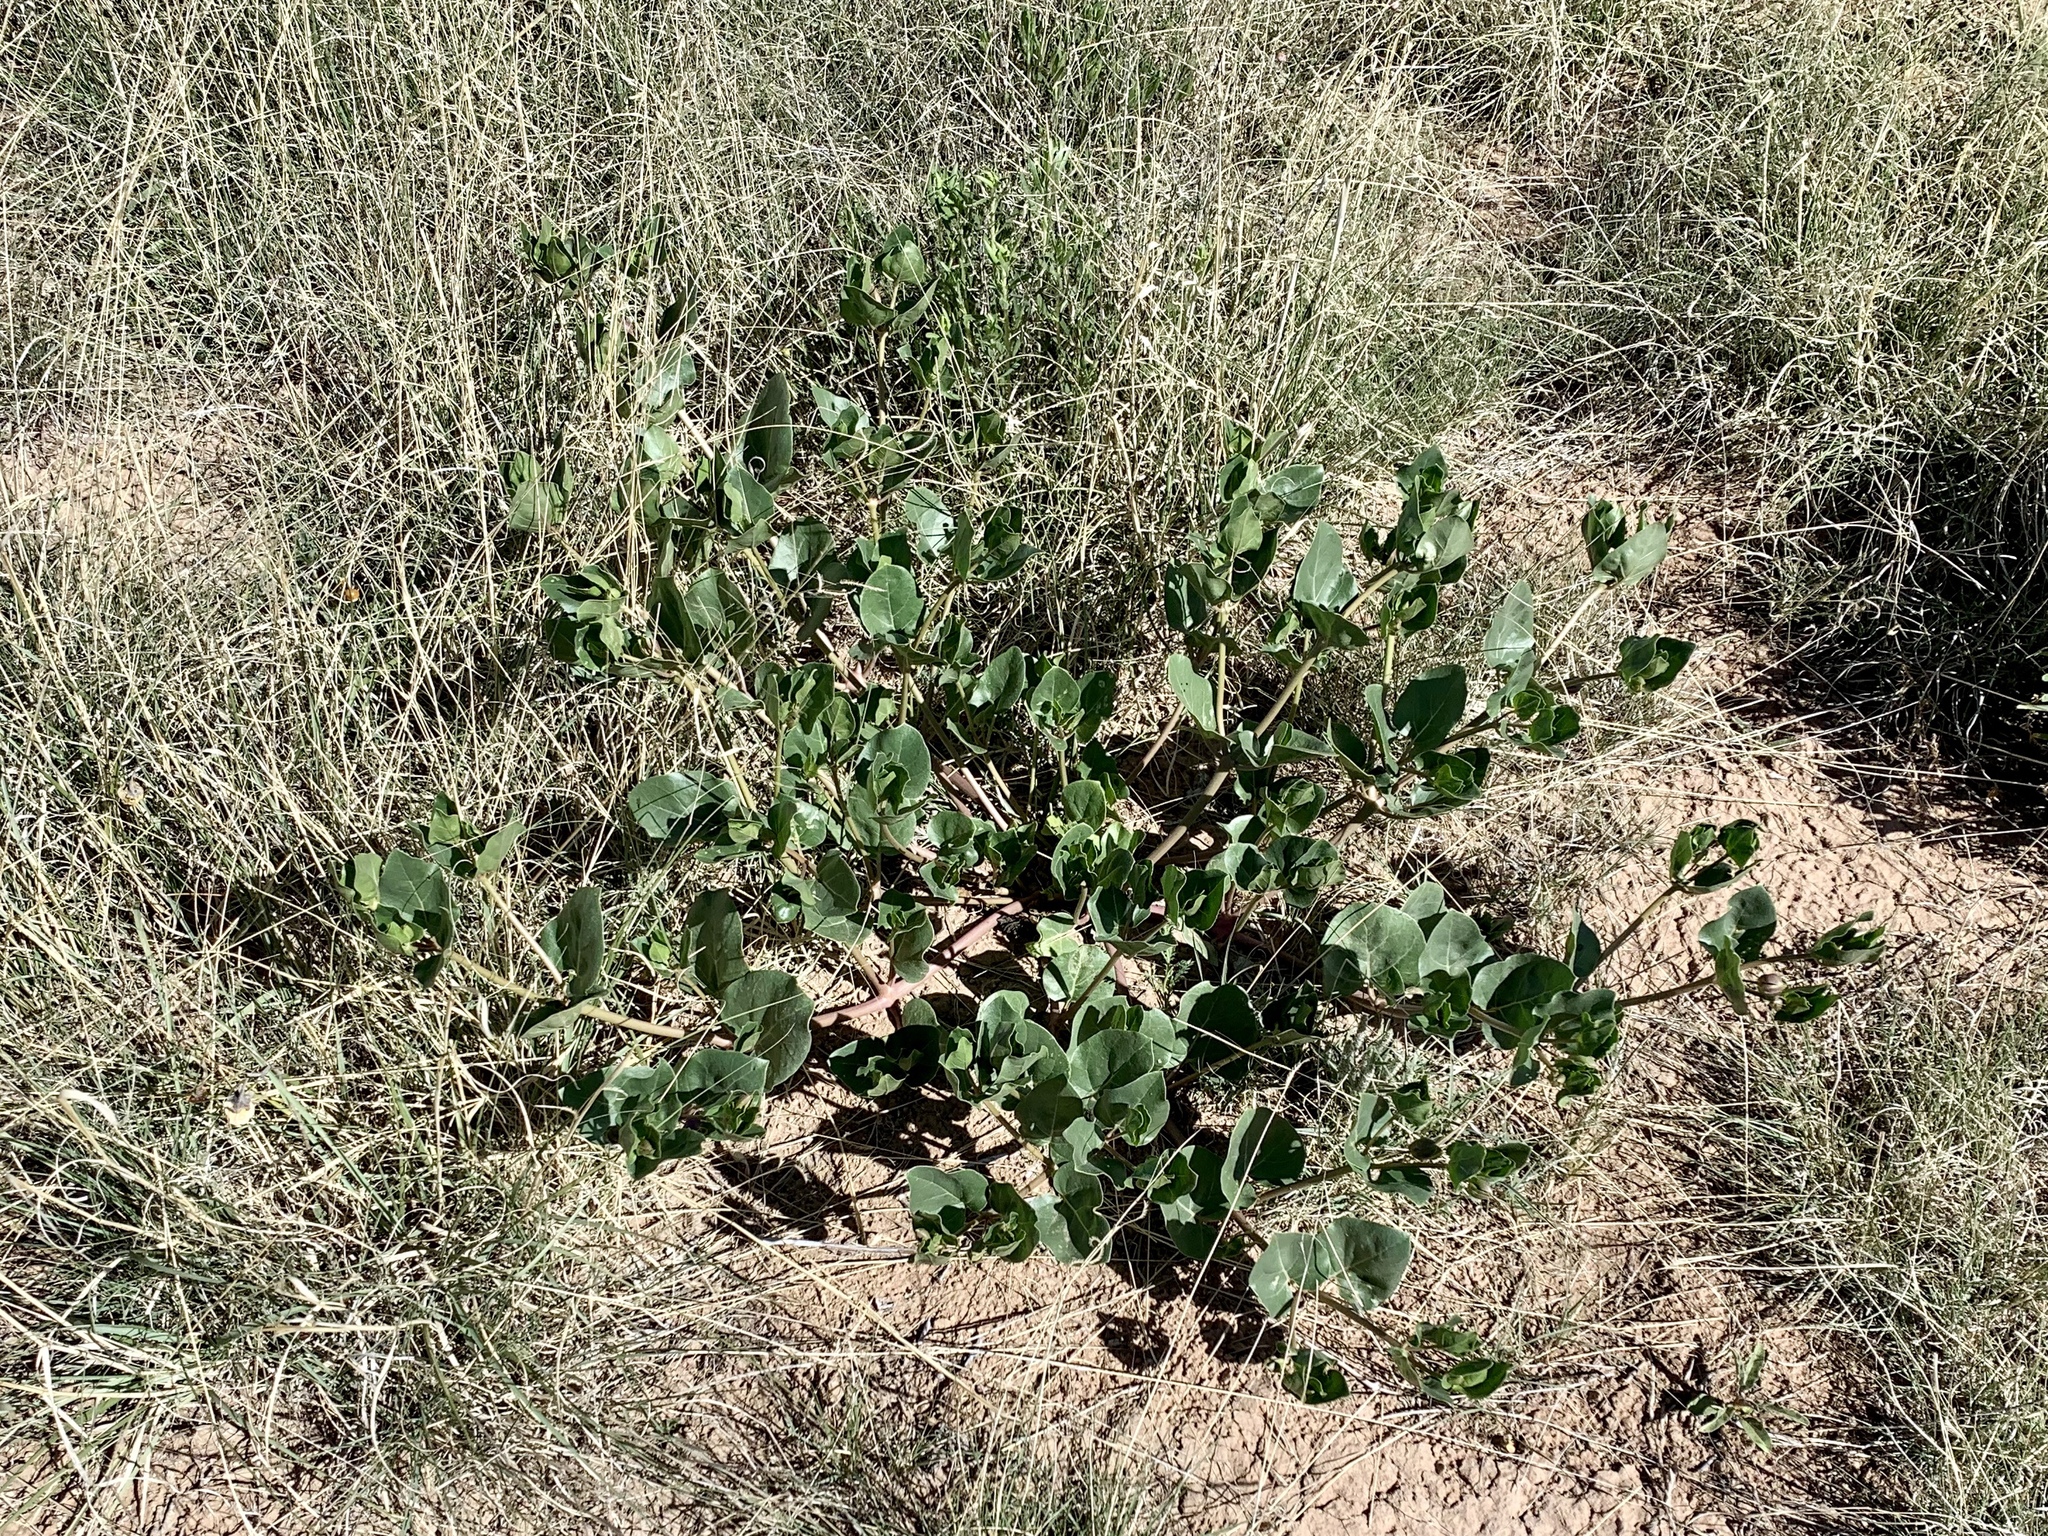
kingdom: Plantae
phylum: Tracheophyta
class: Magnoliopsida
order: Caryophyllales
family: Nyctaginaceae
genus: Mirabilis
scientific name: Mirabilis multiflora
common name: Froebel's four-o'clock
